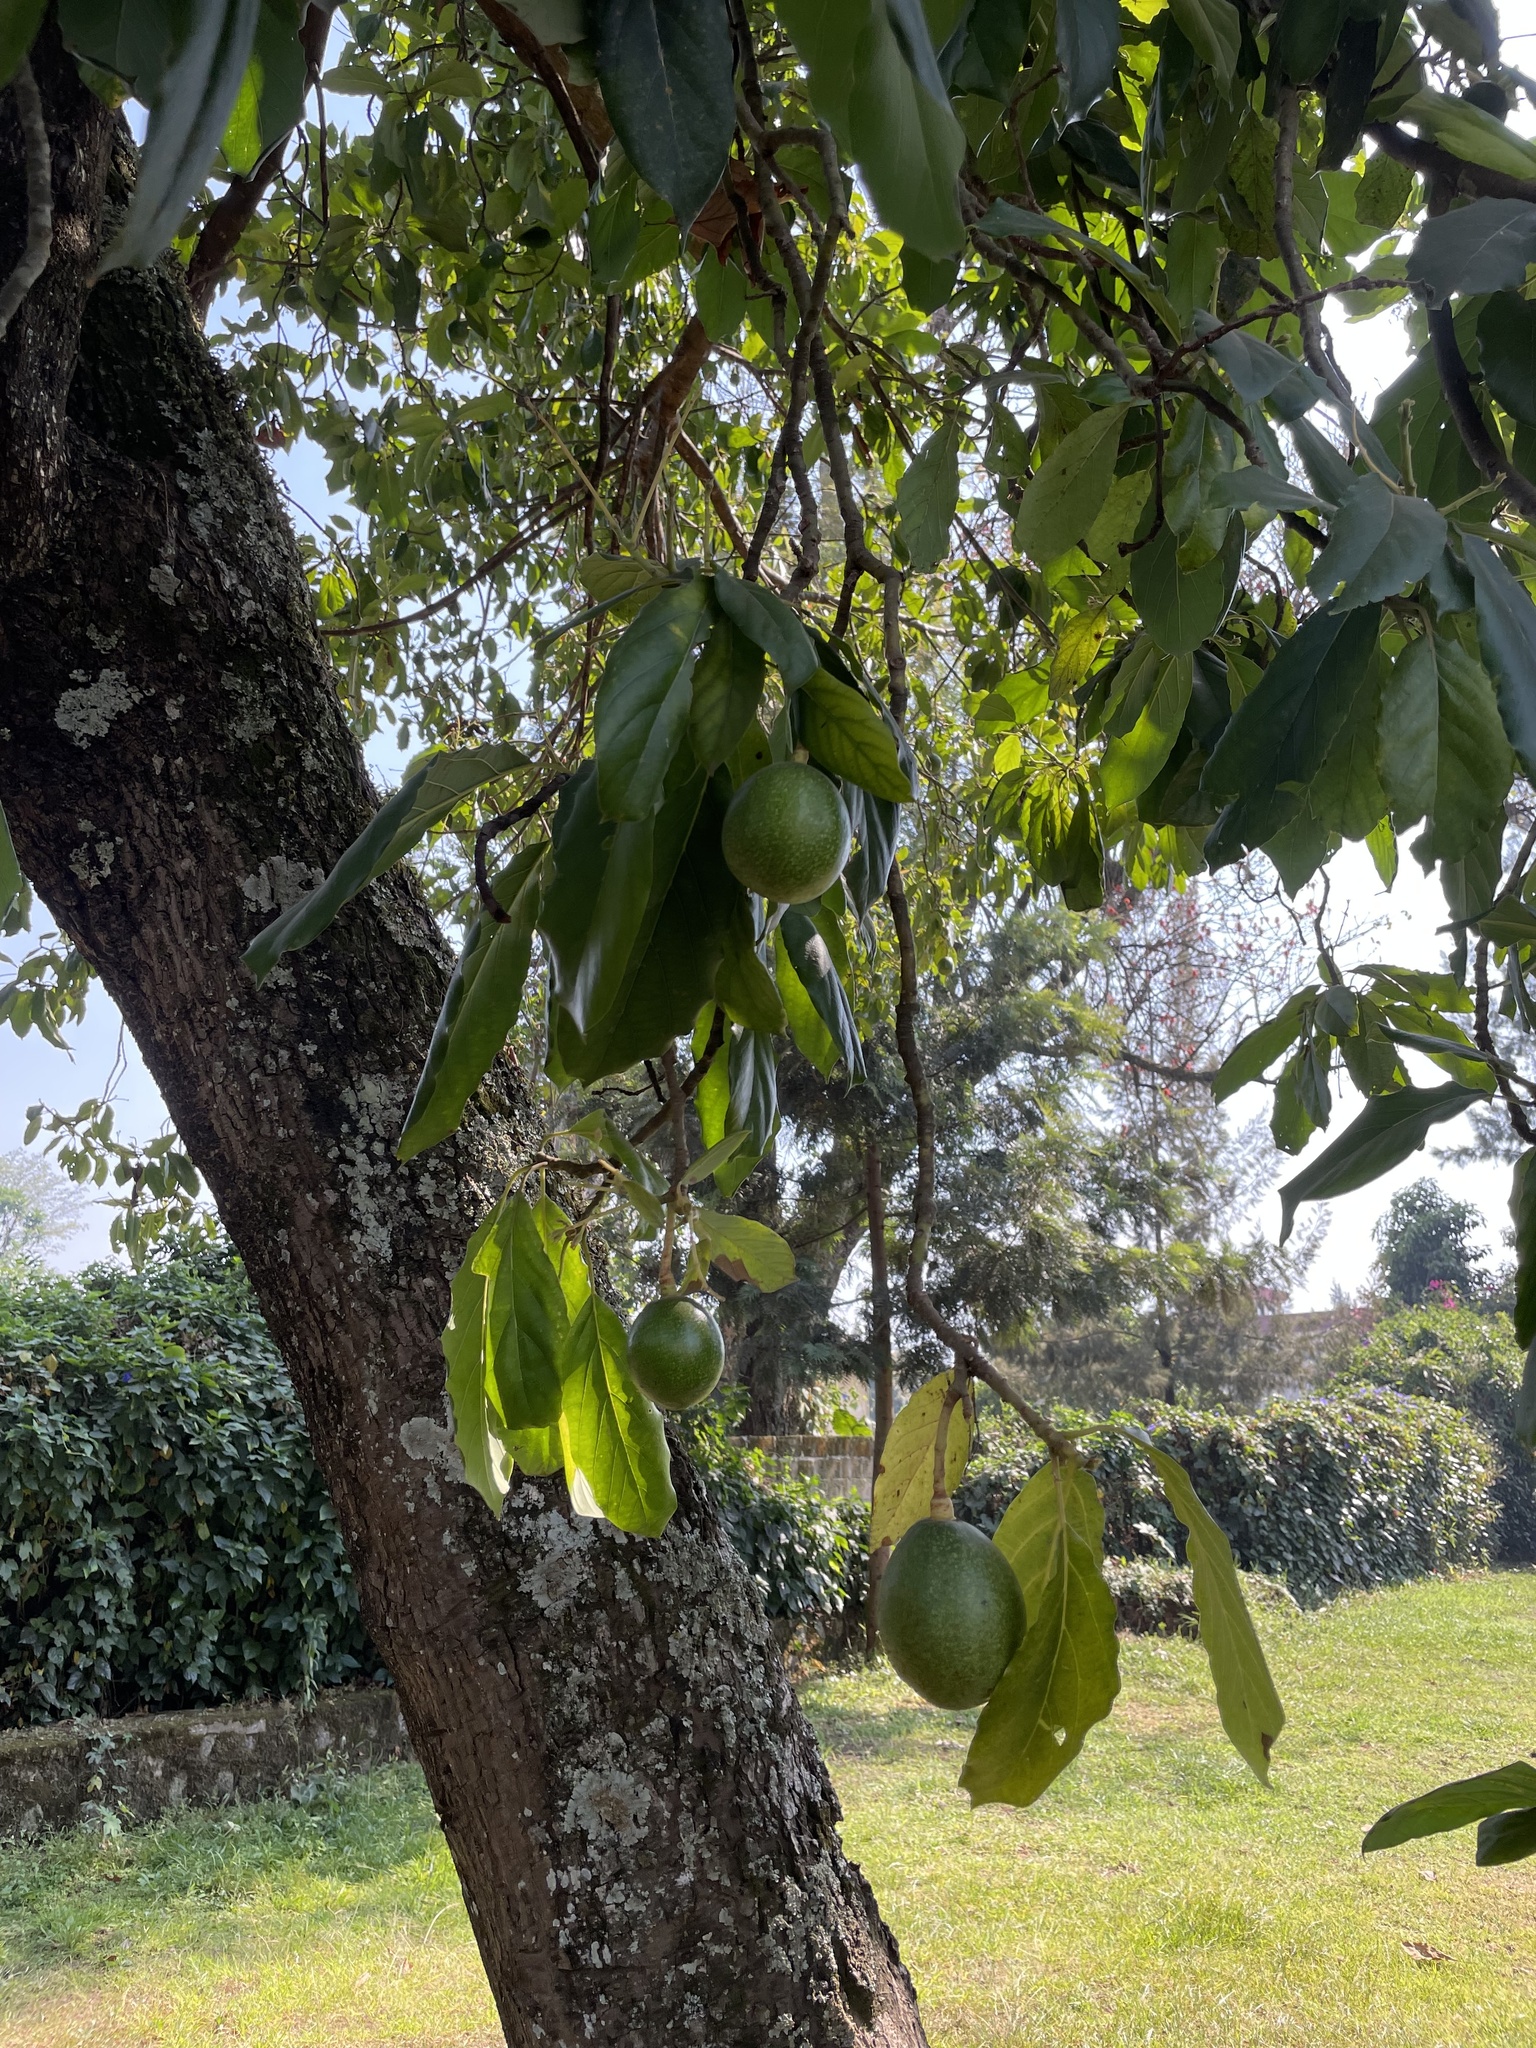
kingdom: Plantae
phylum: Tracheophyta
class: Magnoliopsida
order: Laurales
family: Lauraceae
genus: Persea
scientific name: Persea americana
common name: Avocado
